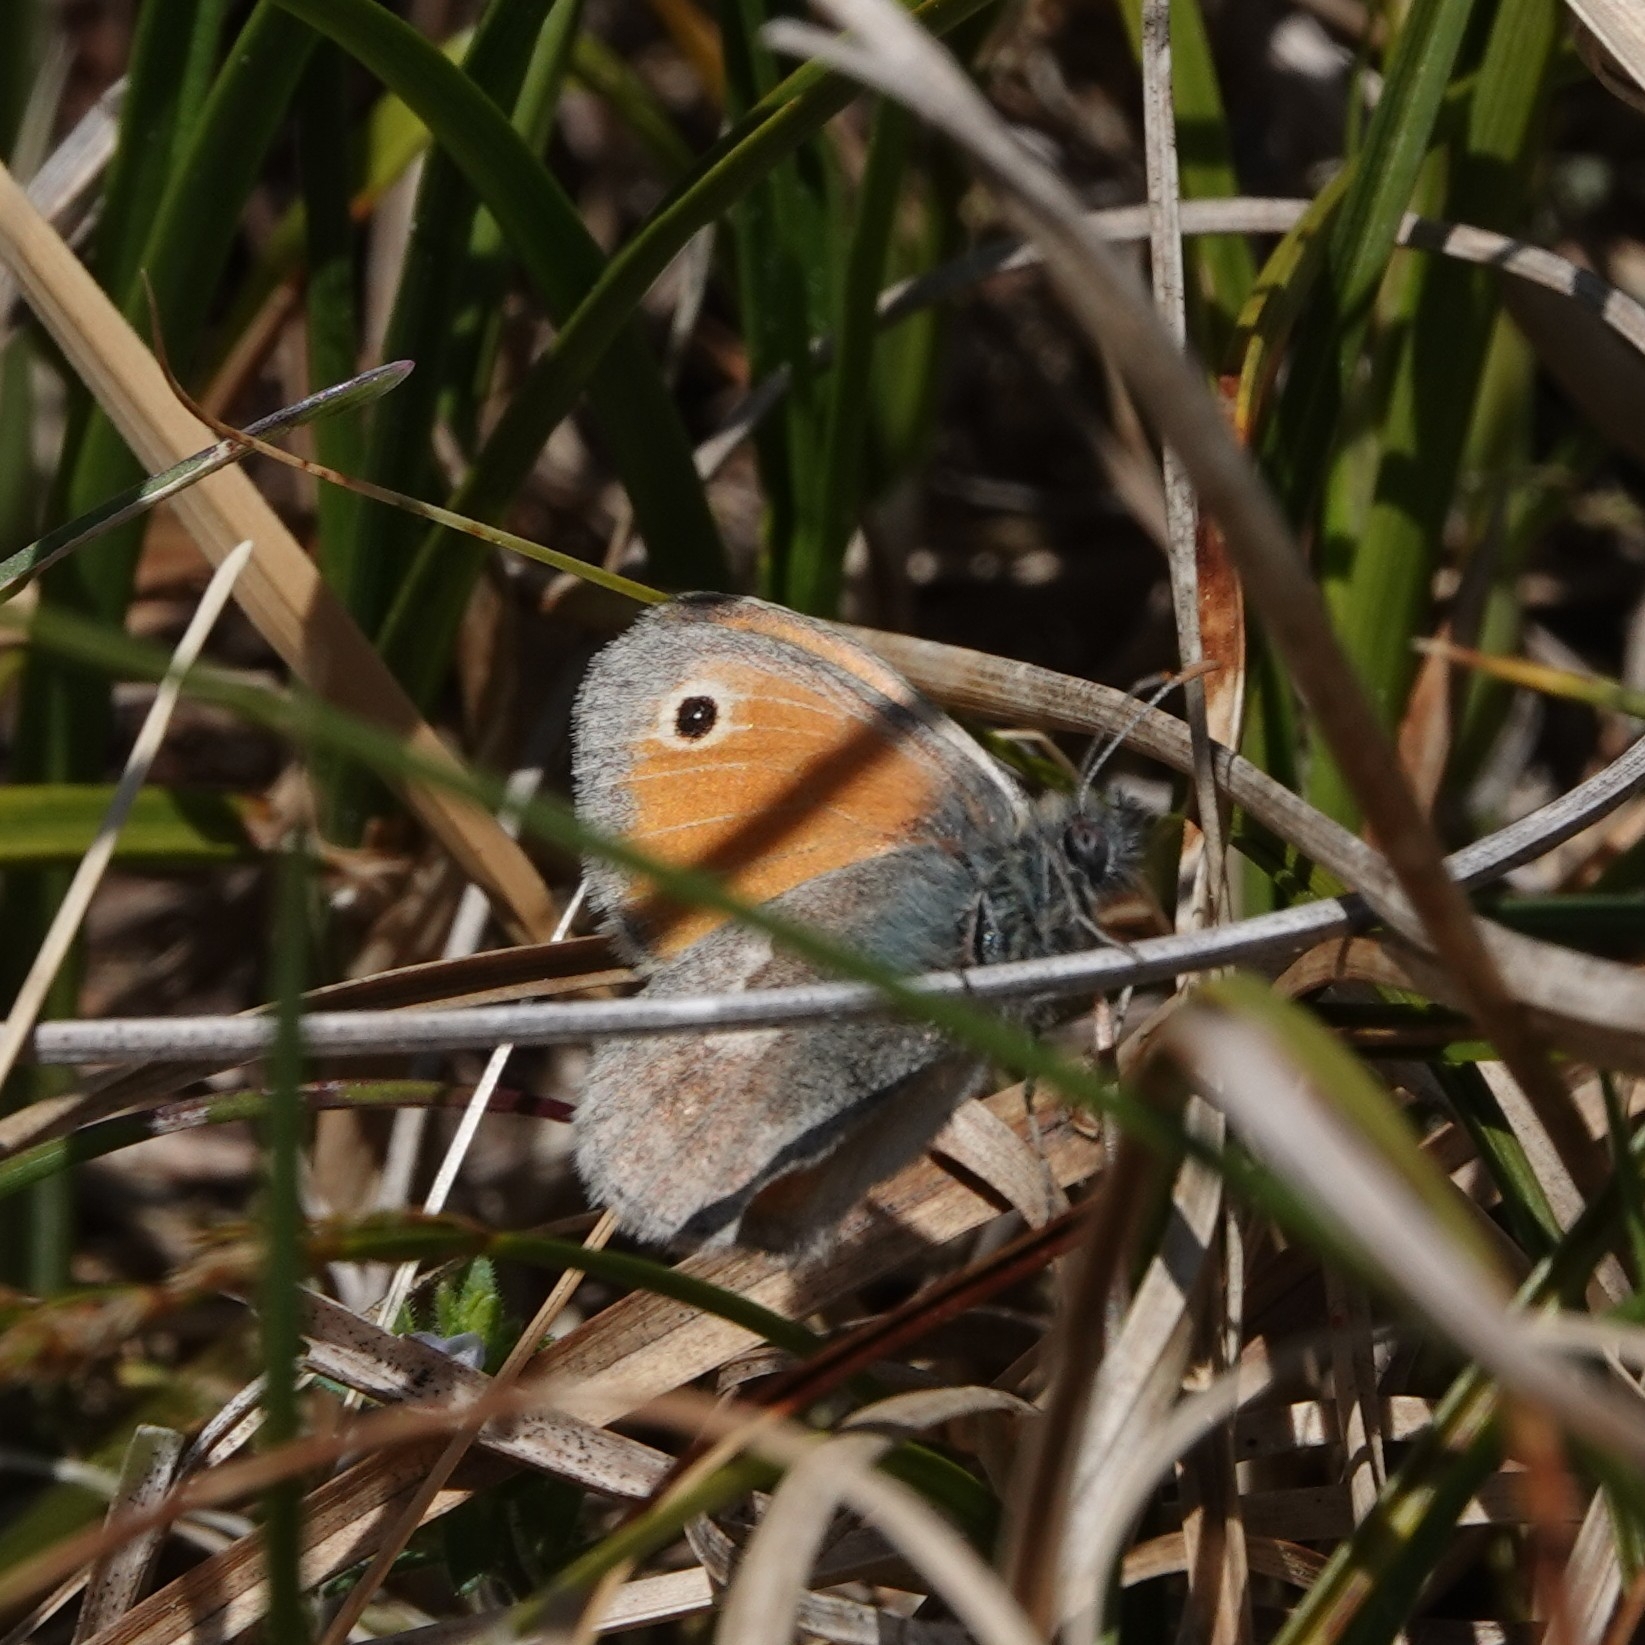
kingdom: Animalia
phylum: Arthropoda
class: Insecta
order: Lepidoptera
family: Nymphalidae
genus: Coenonympha
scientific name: Coenonympha pamphilus
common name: Small heath
